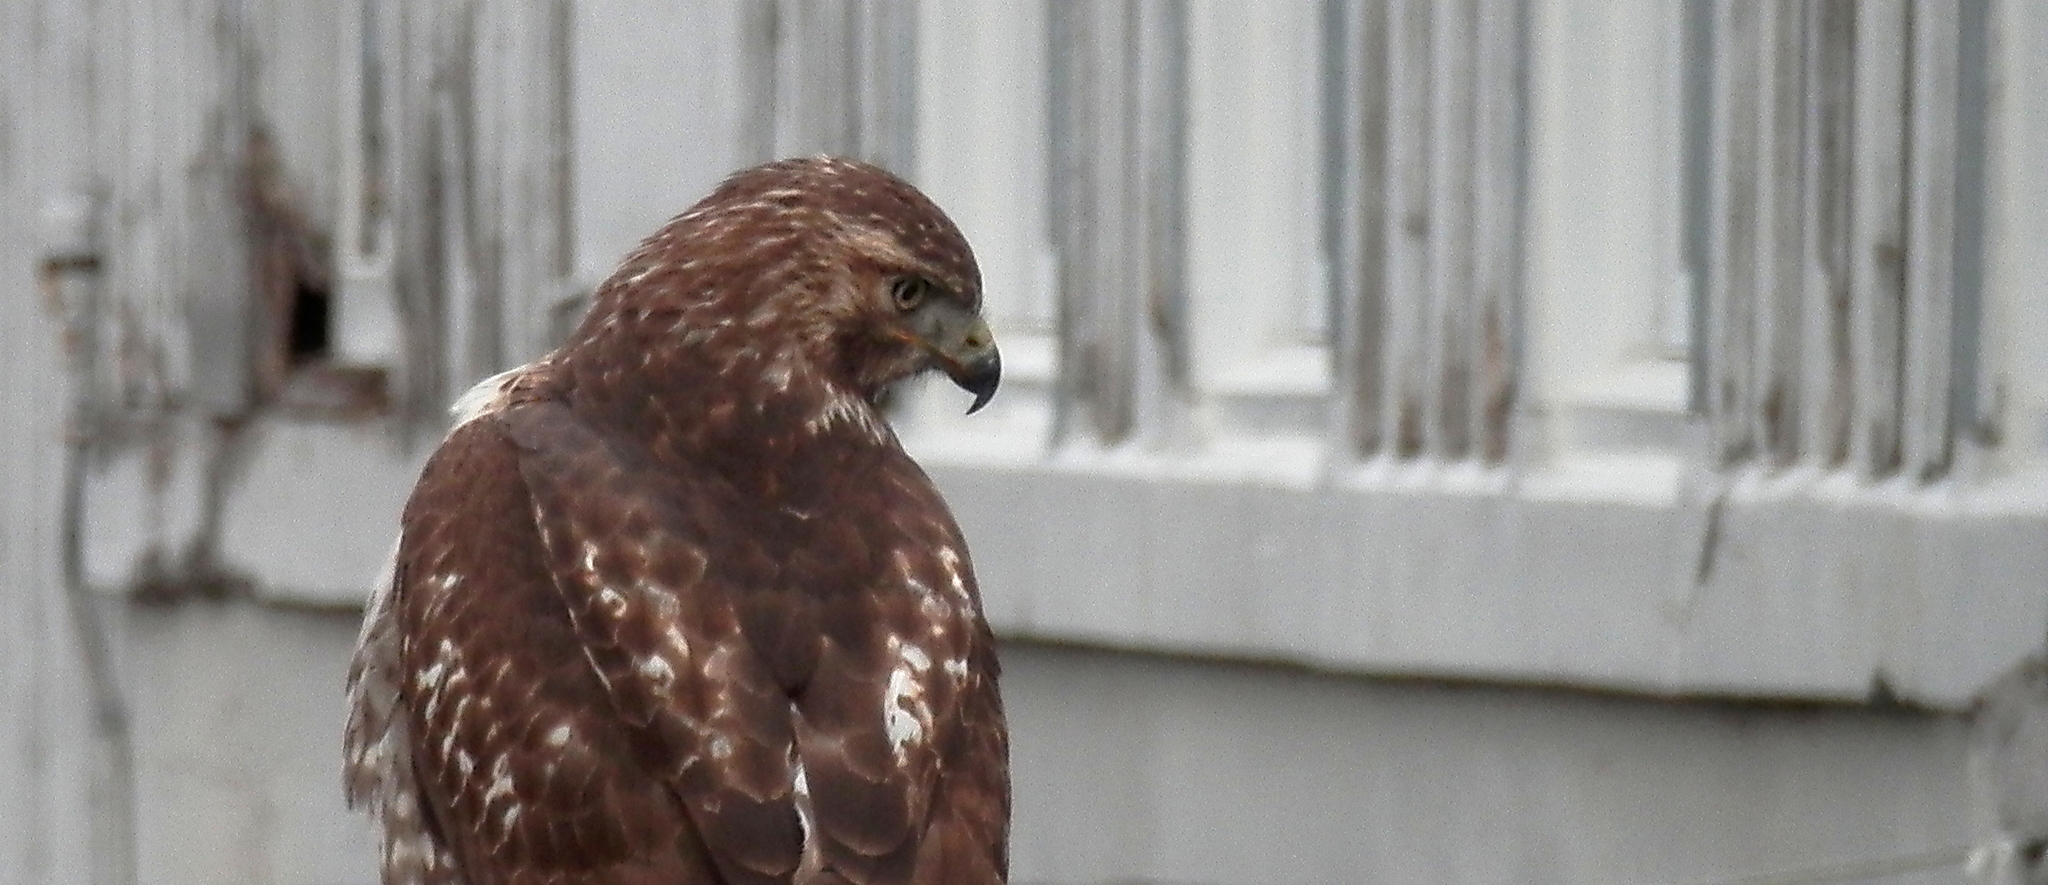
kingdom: Animalia
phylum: Chordata
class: Aves
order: Accipitriformes
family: Accipitridae
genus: Buteo
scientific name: Buteo jamaicensis
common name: Red-tailed hawk
